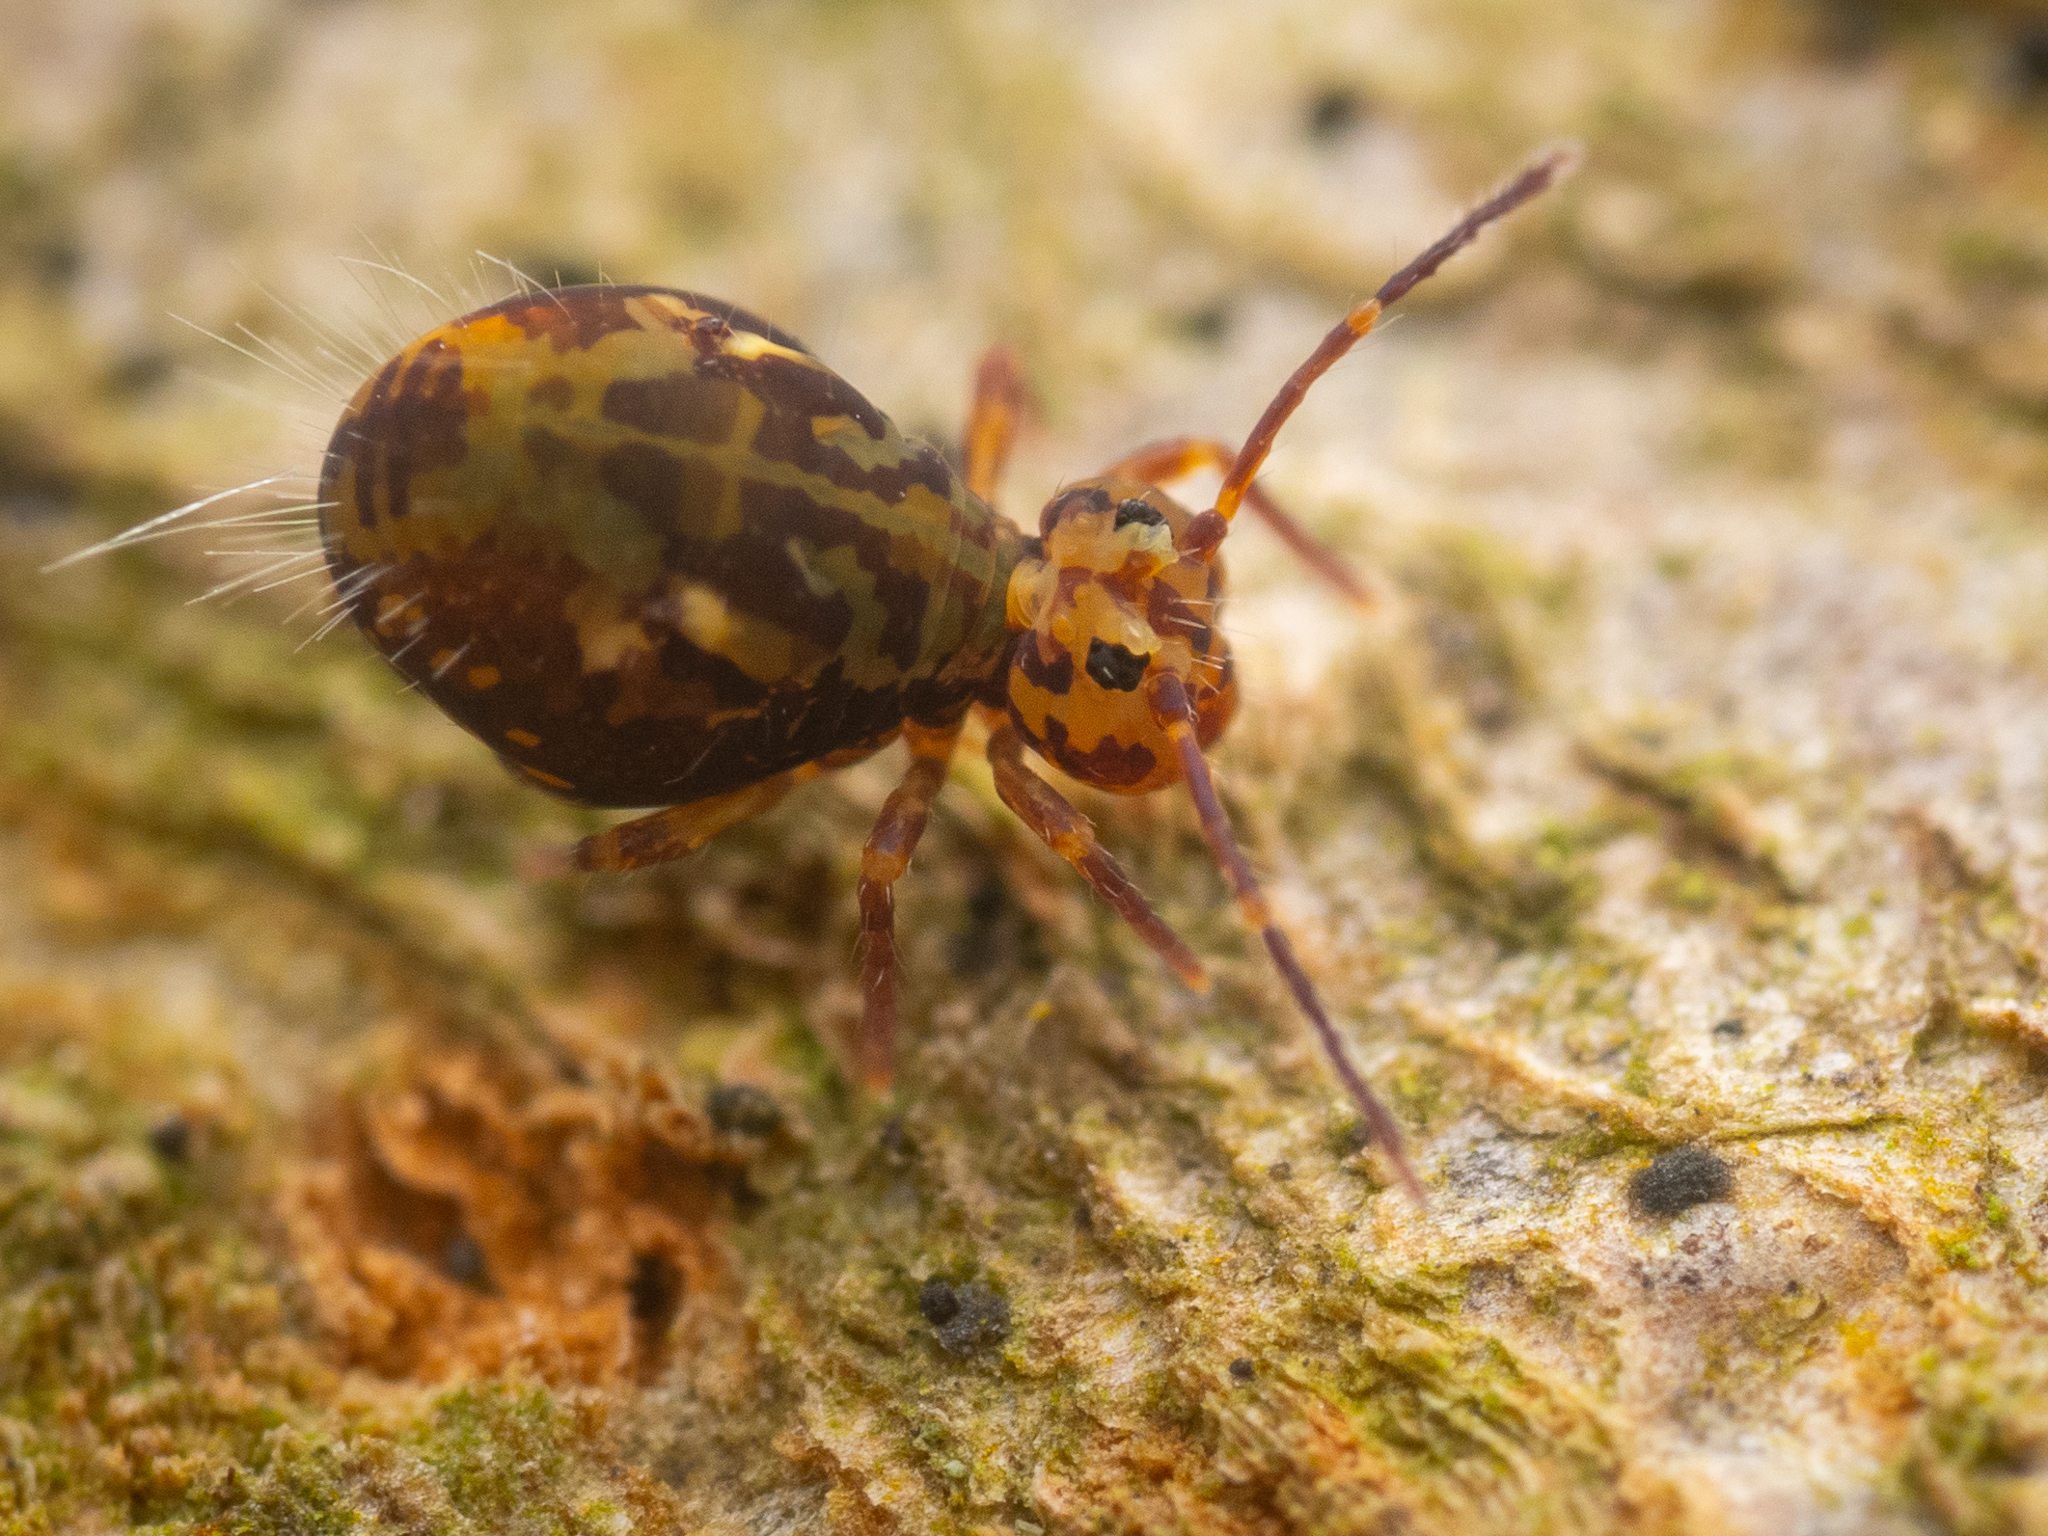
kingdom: Animalia
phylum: Arthropoda
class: Collembola
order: Symphypleona
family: Dicyrtomidae
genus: Dicyrtomina
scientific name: Dicyrtomina saundersi
